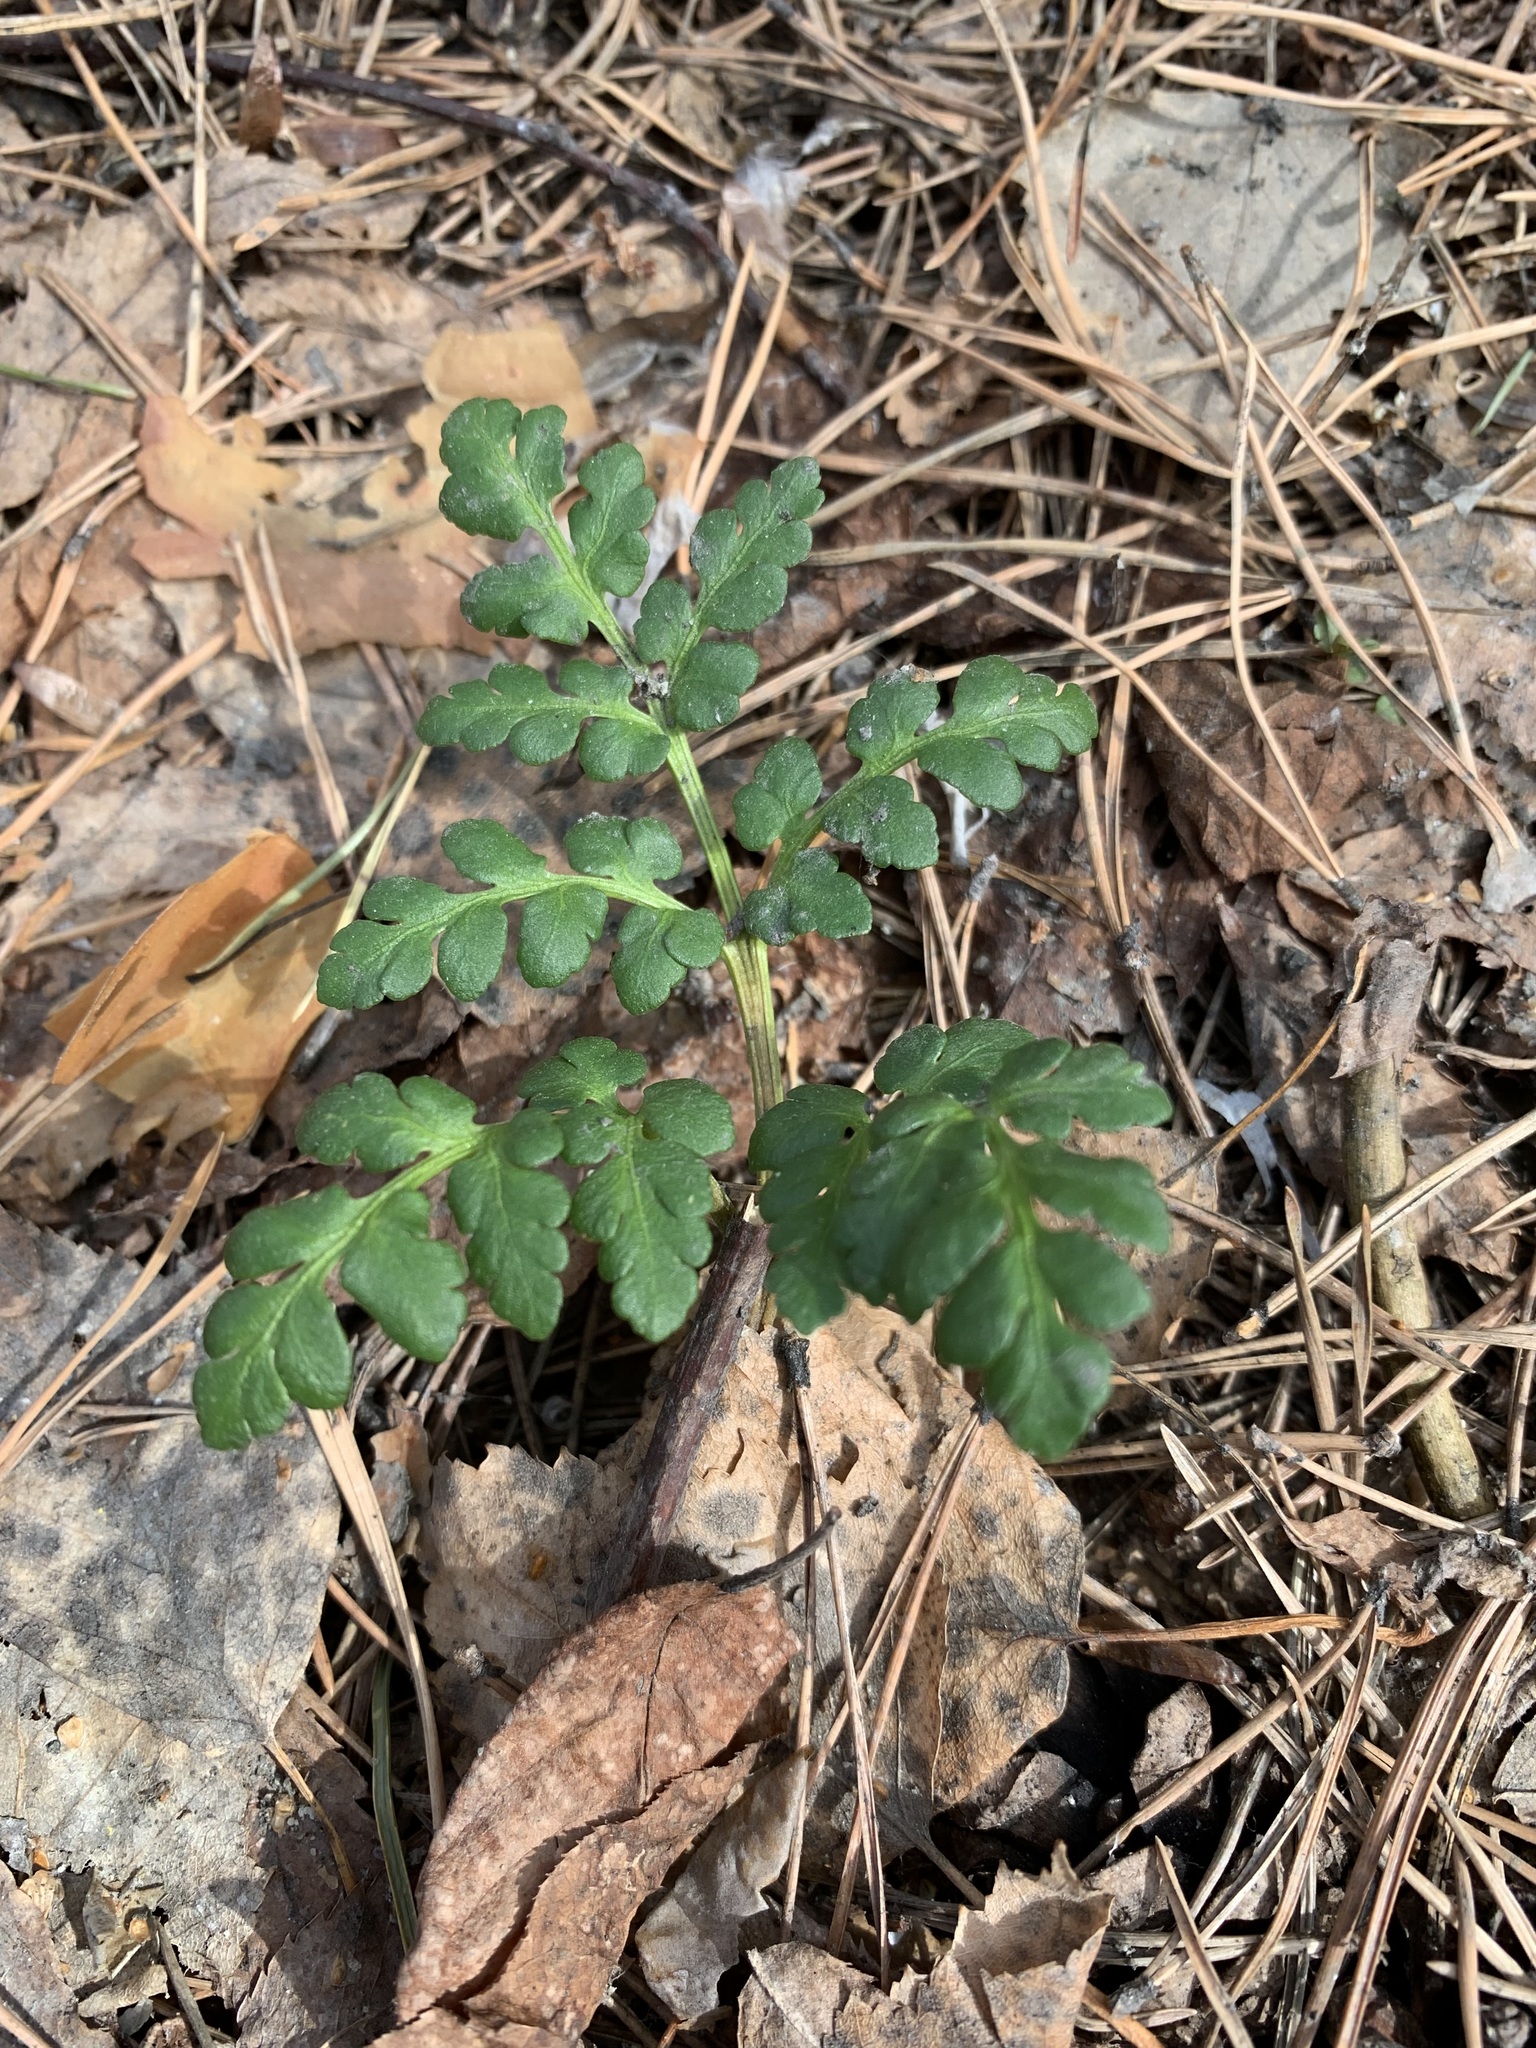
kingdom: Plantae
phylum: Tracheophyta
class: Polypodiopsida
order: Ophioglossales
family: Ophioglossaceae
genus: Sceptridium
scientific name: Sceptridium multifidum
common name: Leathery grape fern
